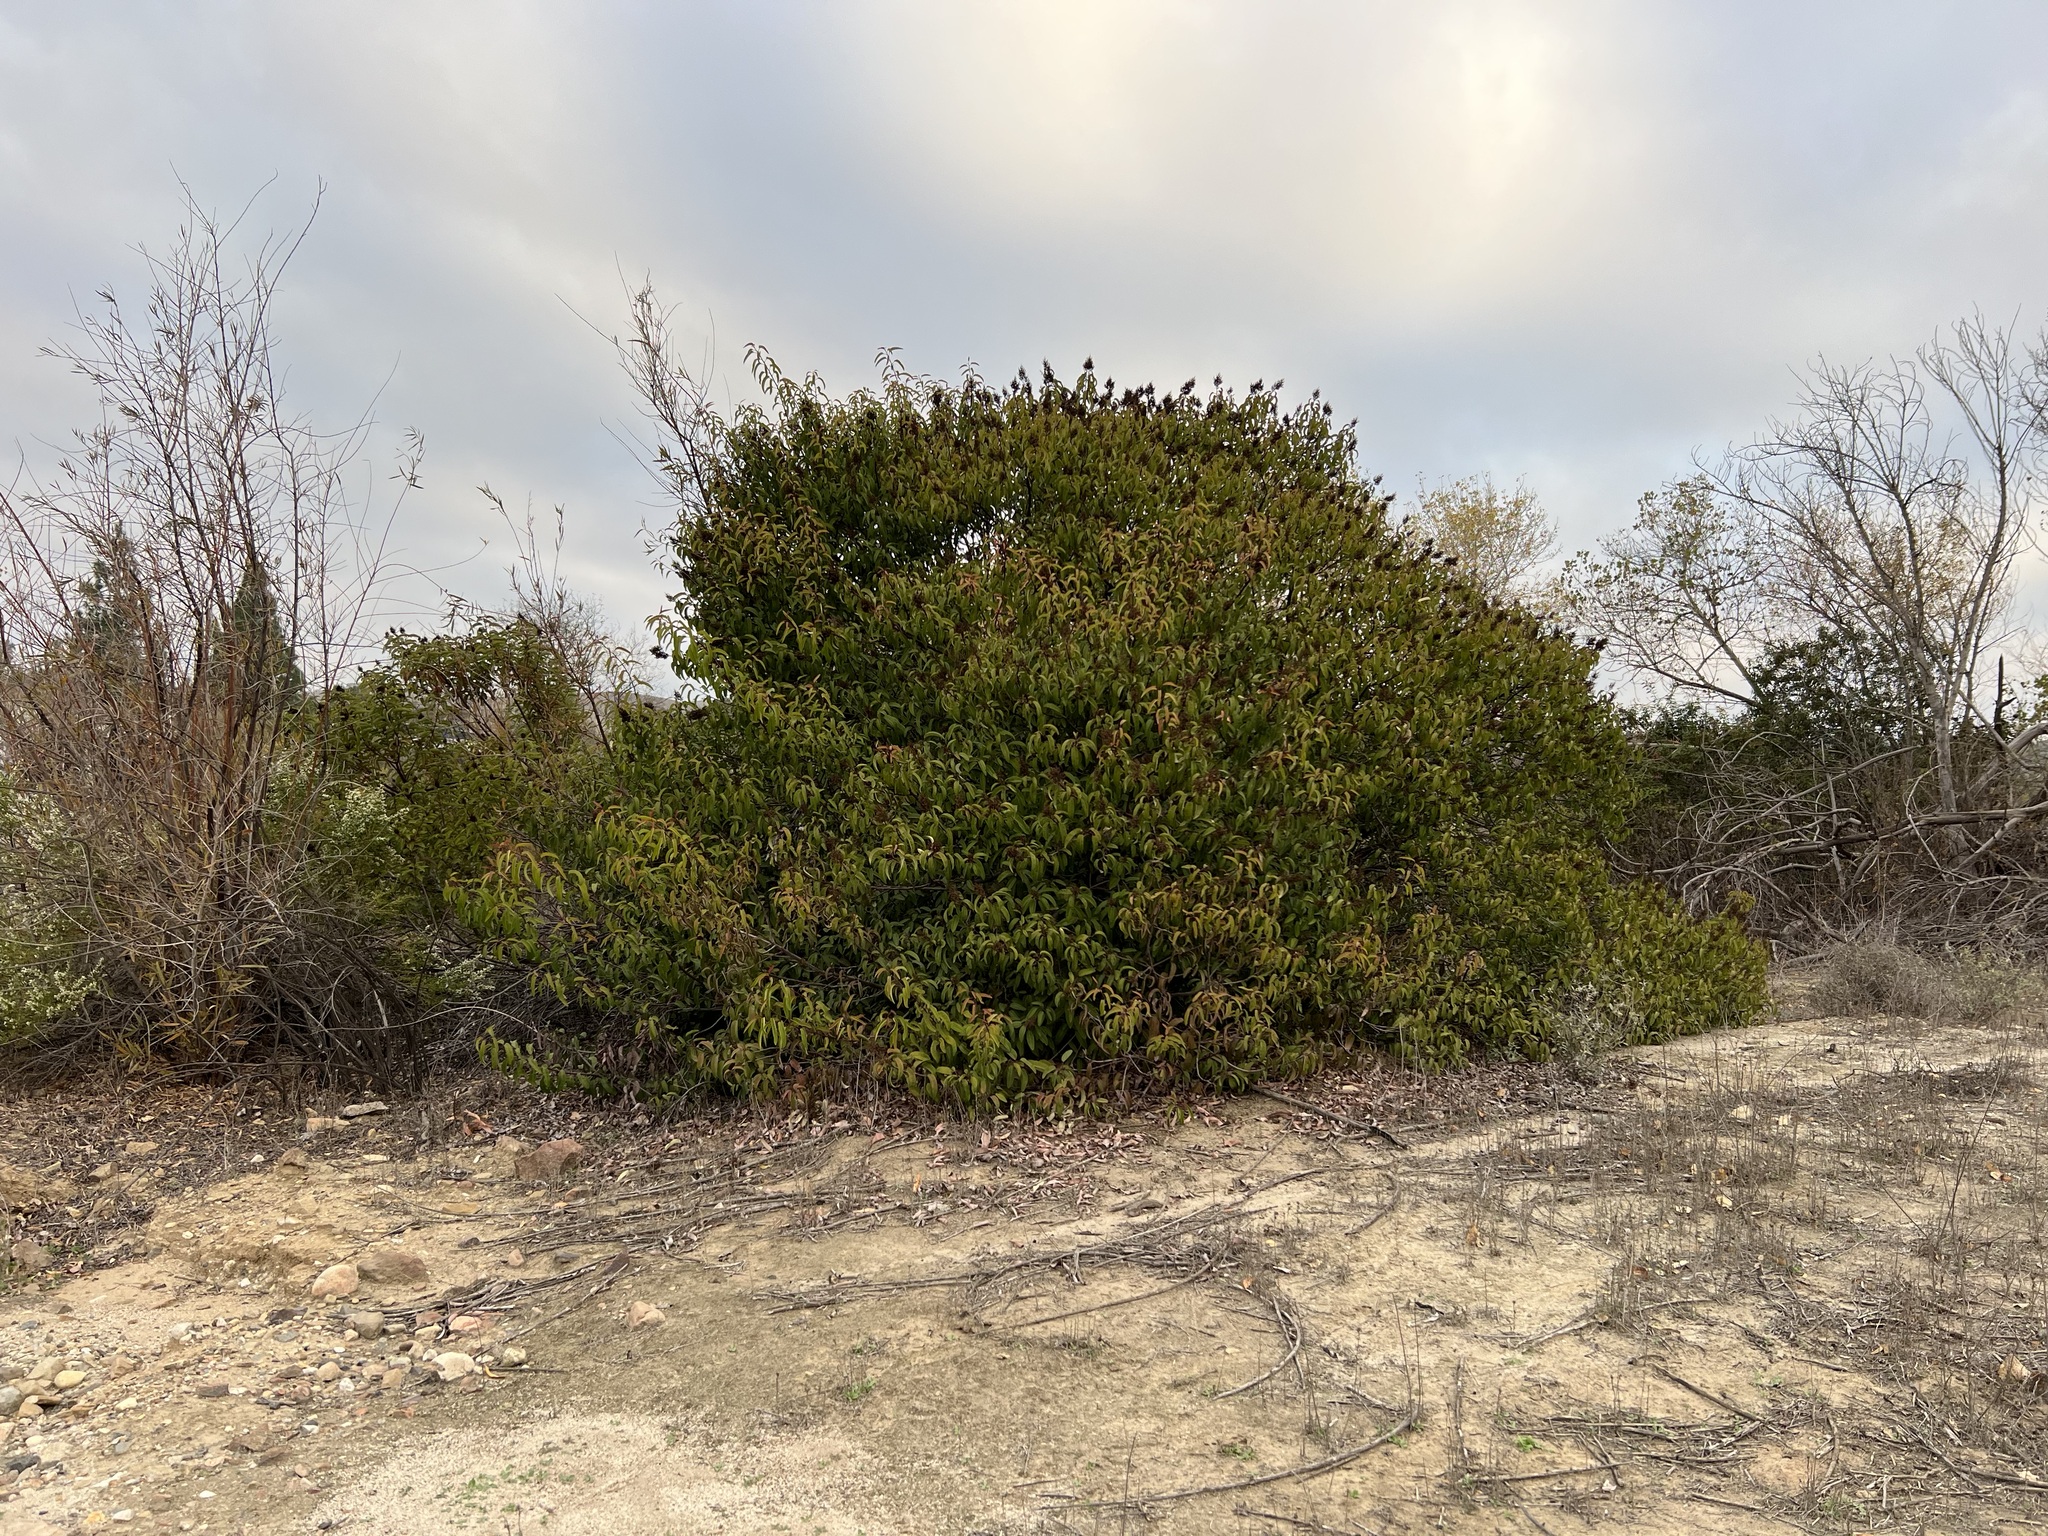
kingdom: Plantae
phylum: Tracheophyta
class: Magnoliopsida
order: Sapindales
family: Anacardiaceae
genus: Malosma
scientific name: Malosma laurina
